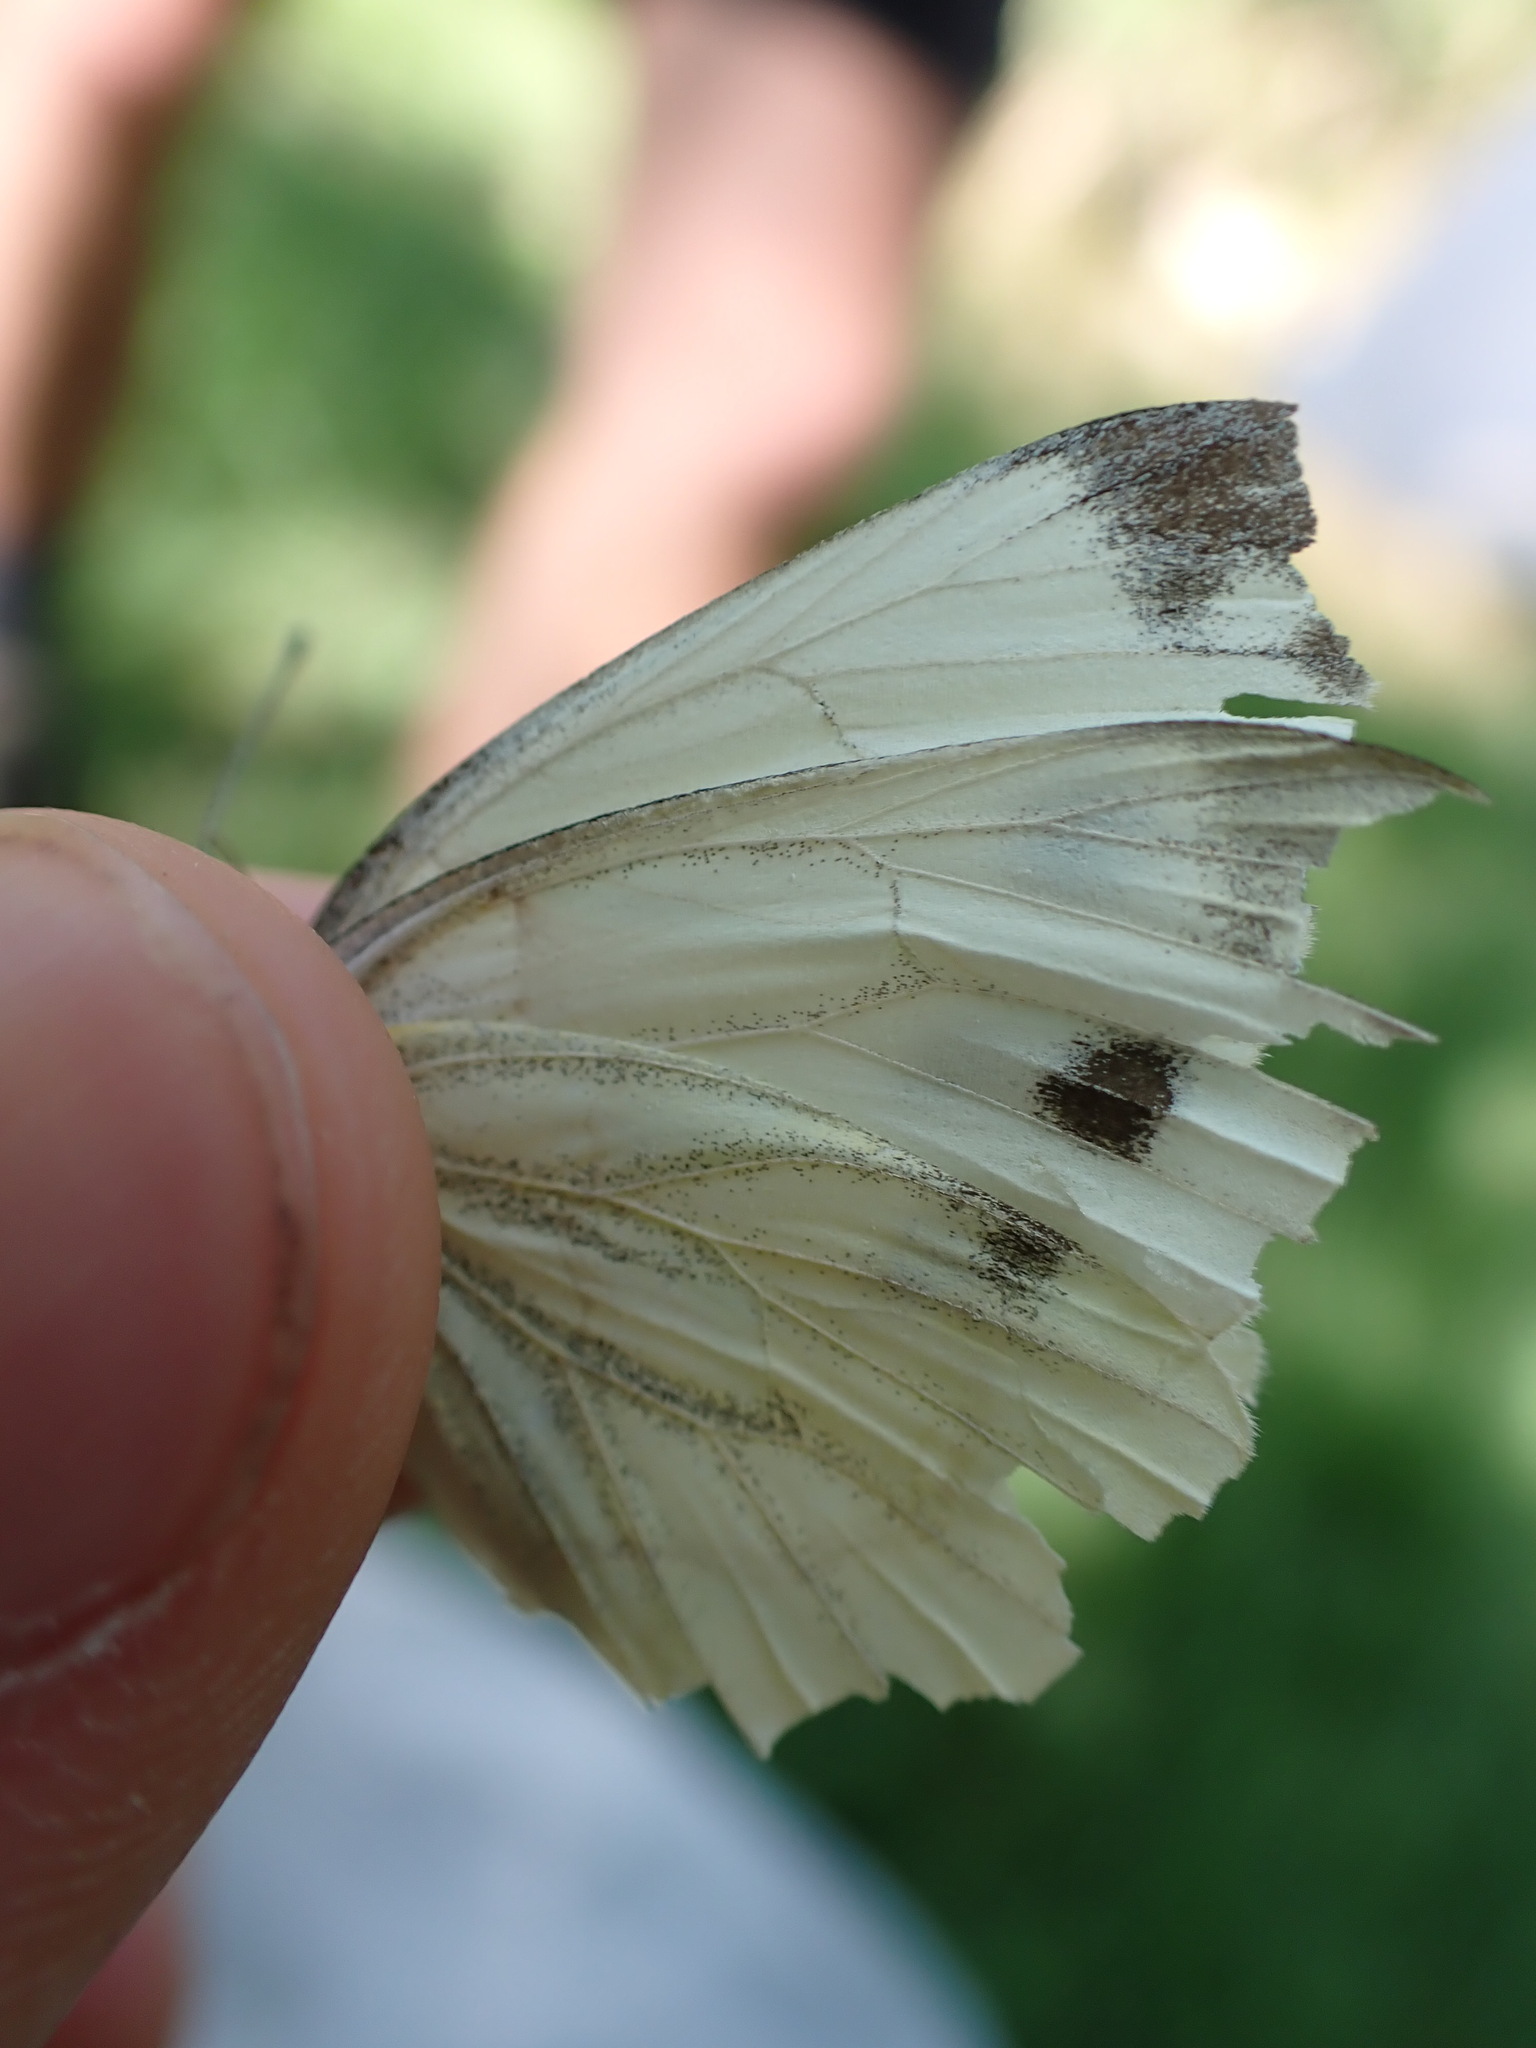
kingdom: Animalia
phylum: Arthropoda
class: Insecta
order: Lepidoptera
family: Pieridae
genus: Pieris
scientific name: Pieris napi
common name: Green-veined white
